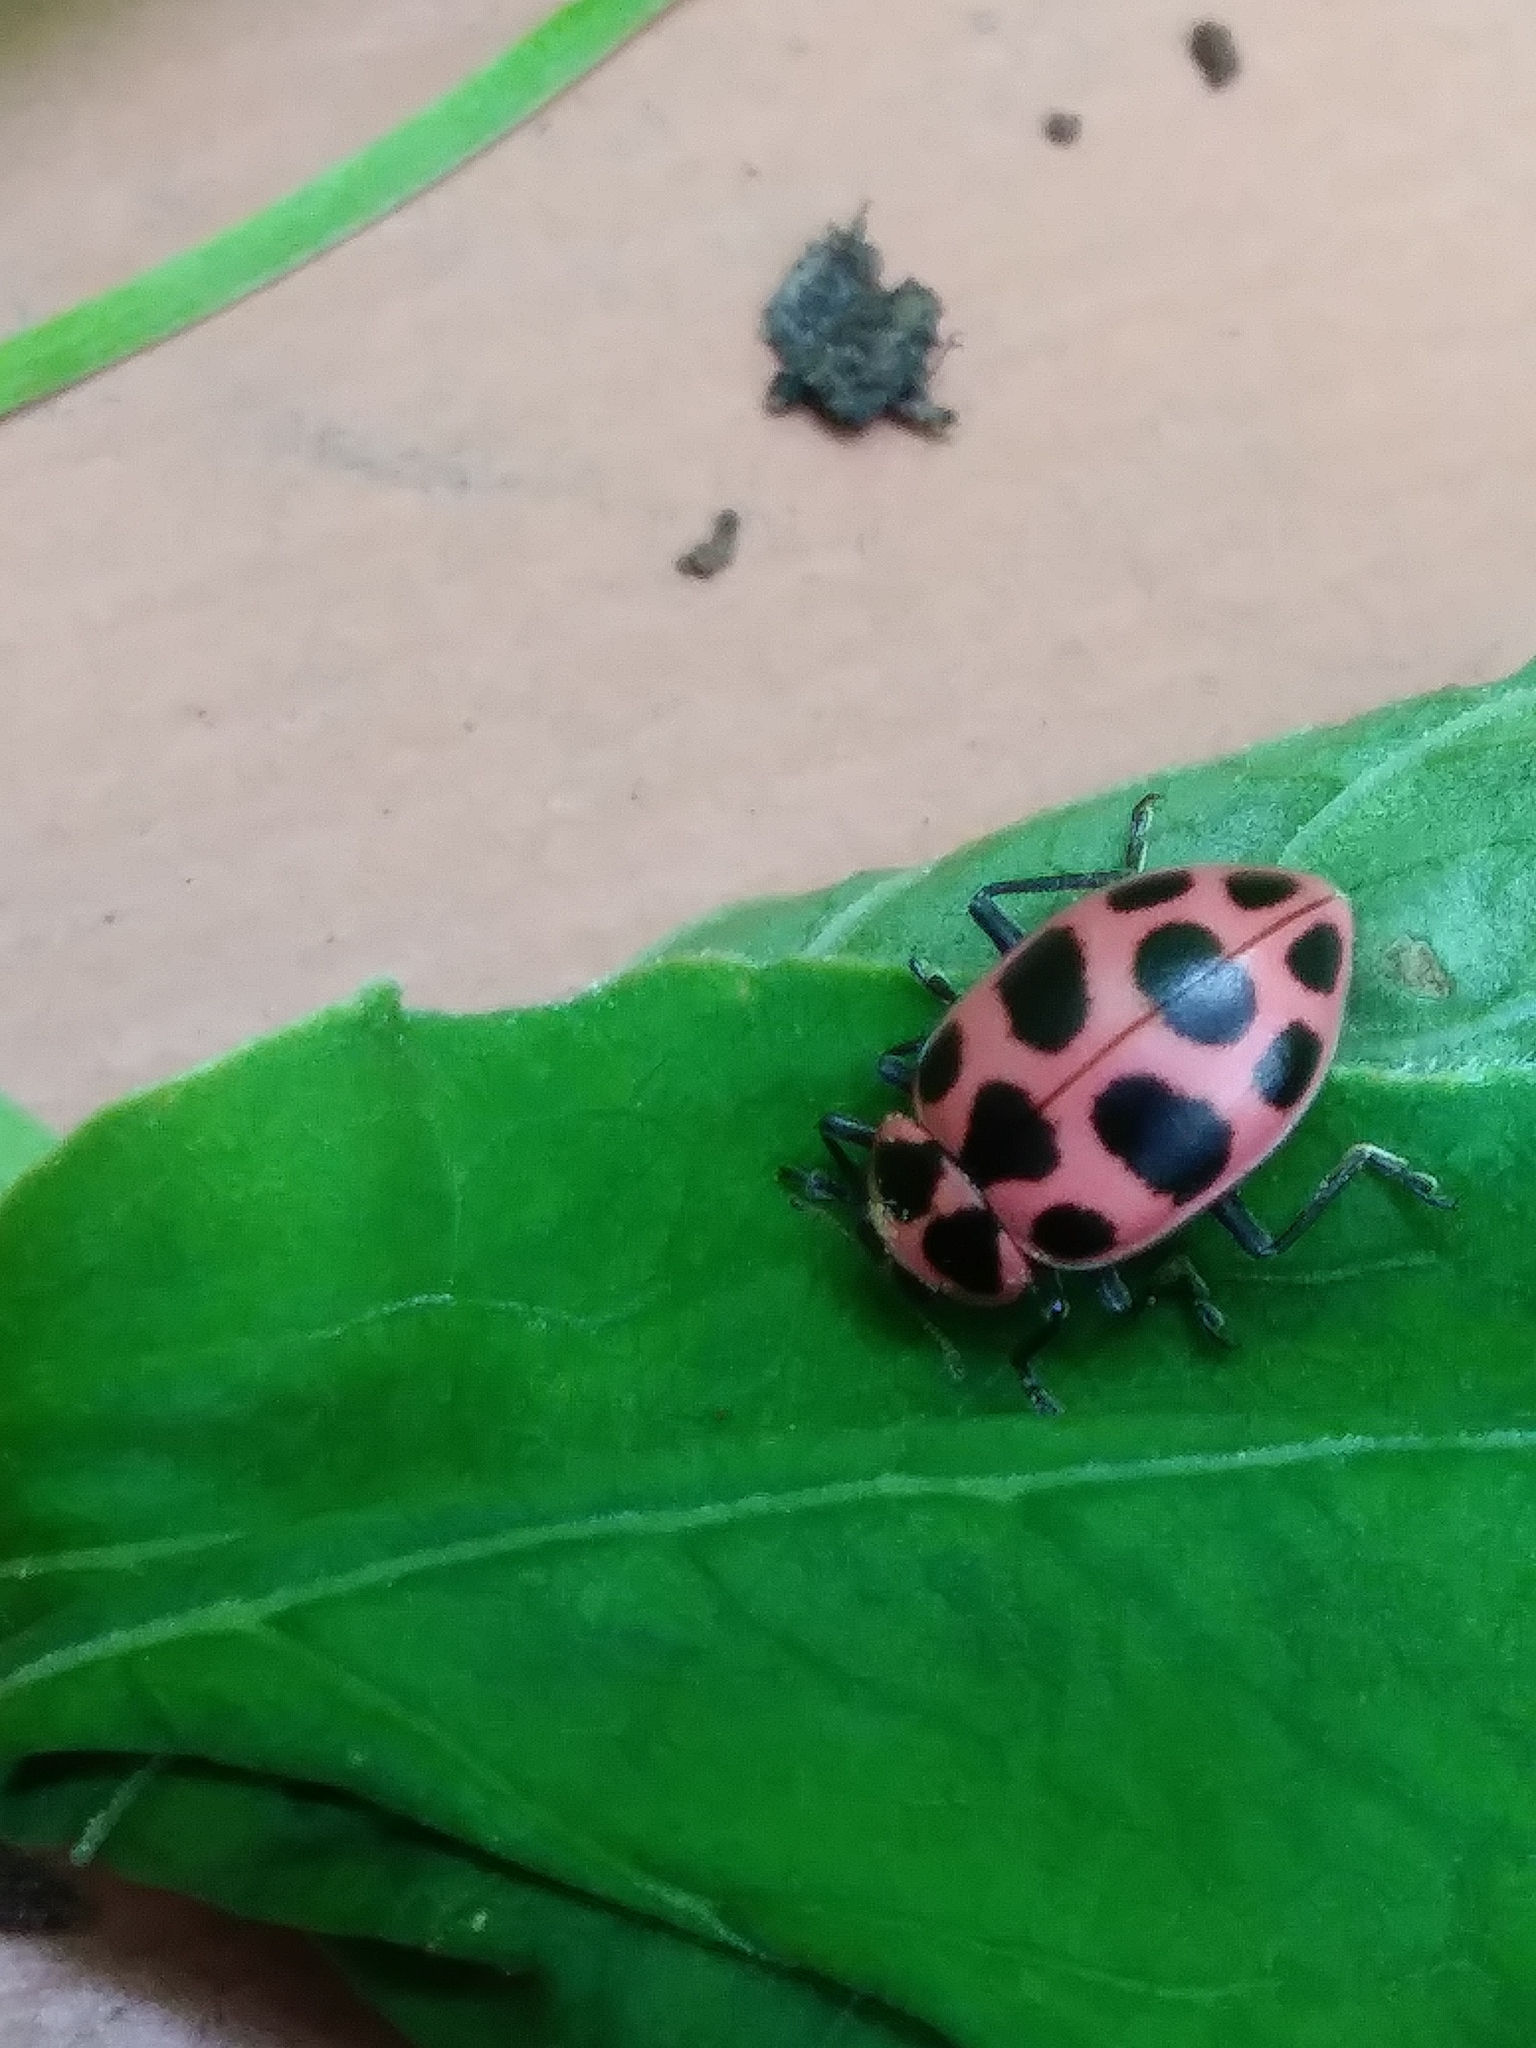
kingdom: Animalia
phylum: Arthropoda
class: Insecta
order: Coleoptera
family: Coccinellidae
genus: Coleomegilla
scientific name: Coleomegilla maculata
